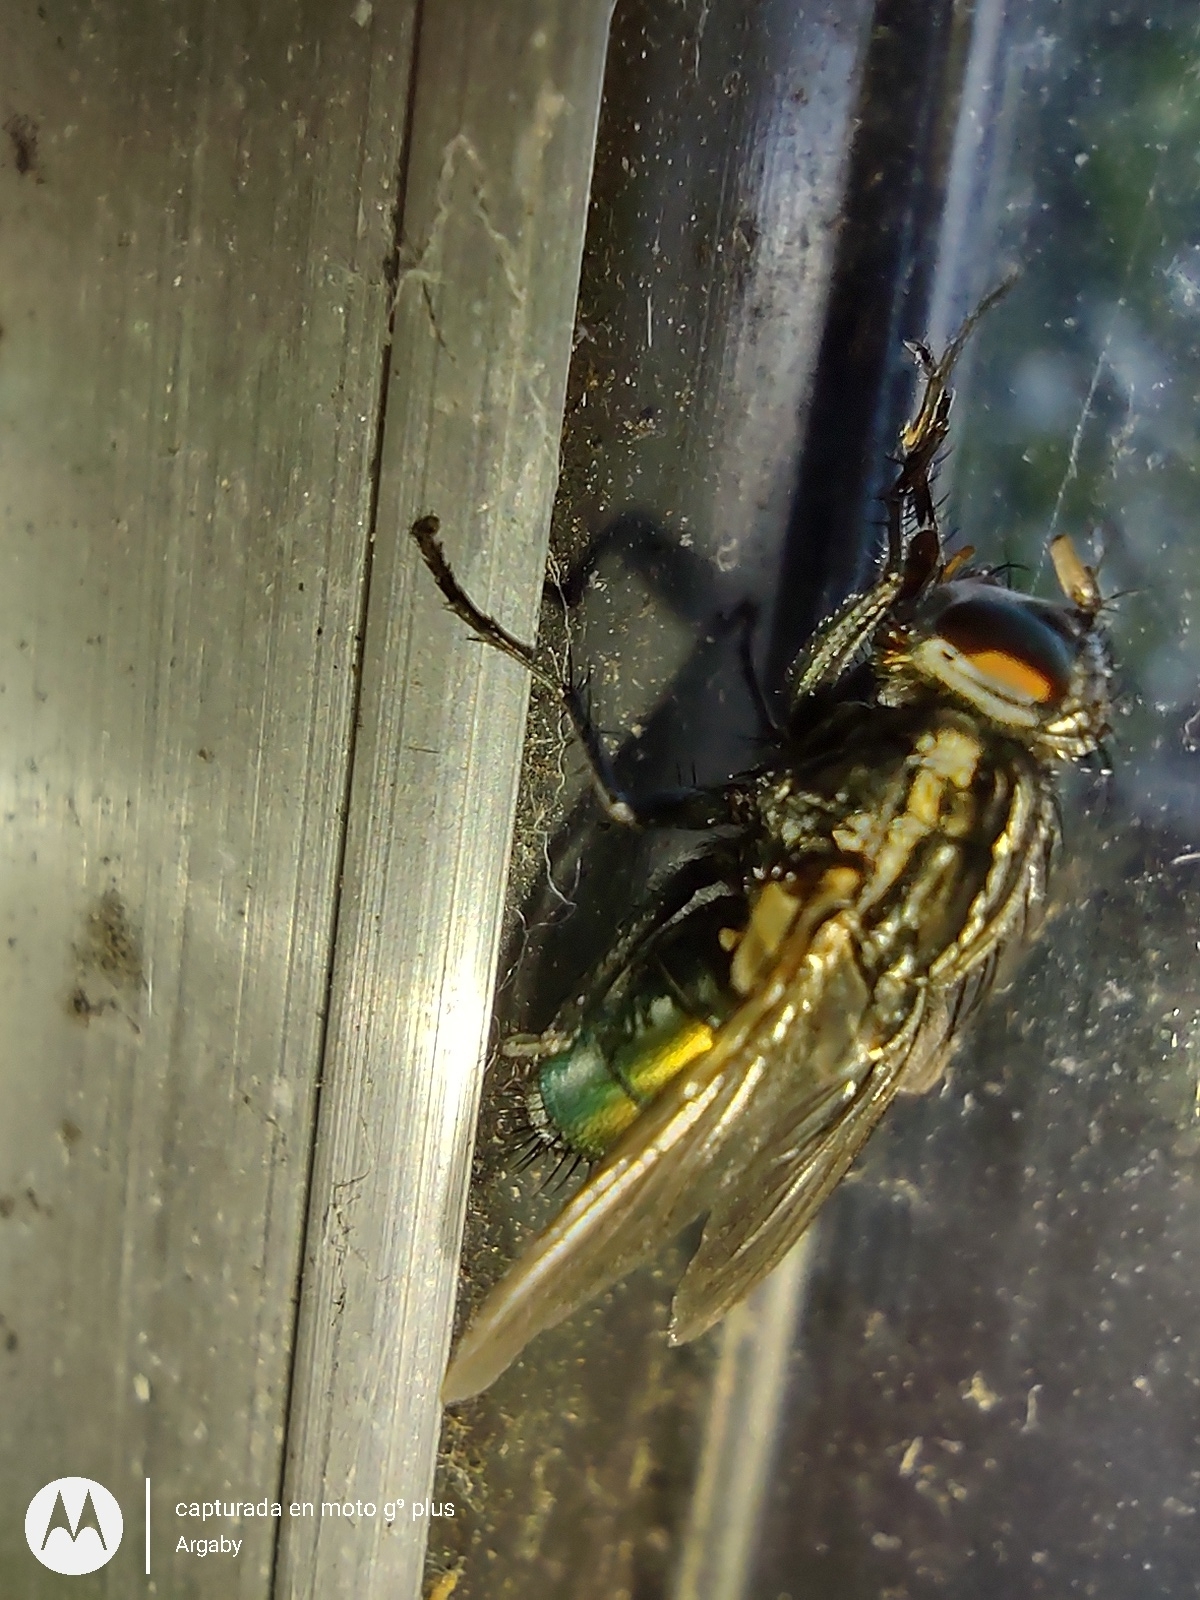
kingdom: Animalia
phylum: Arthropoda
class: Insecta
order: Diptera
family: Calliphoridae
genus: Sarconesia
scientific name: Sarconesia chlorogaster
